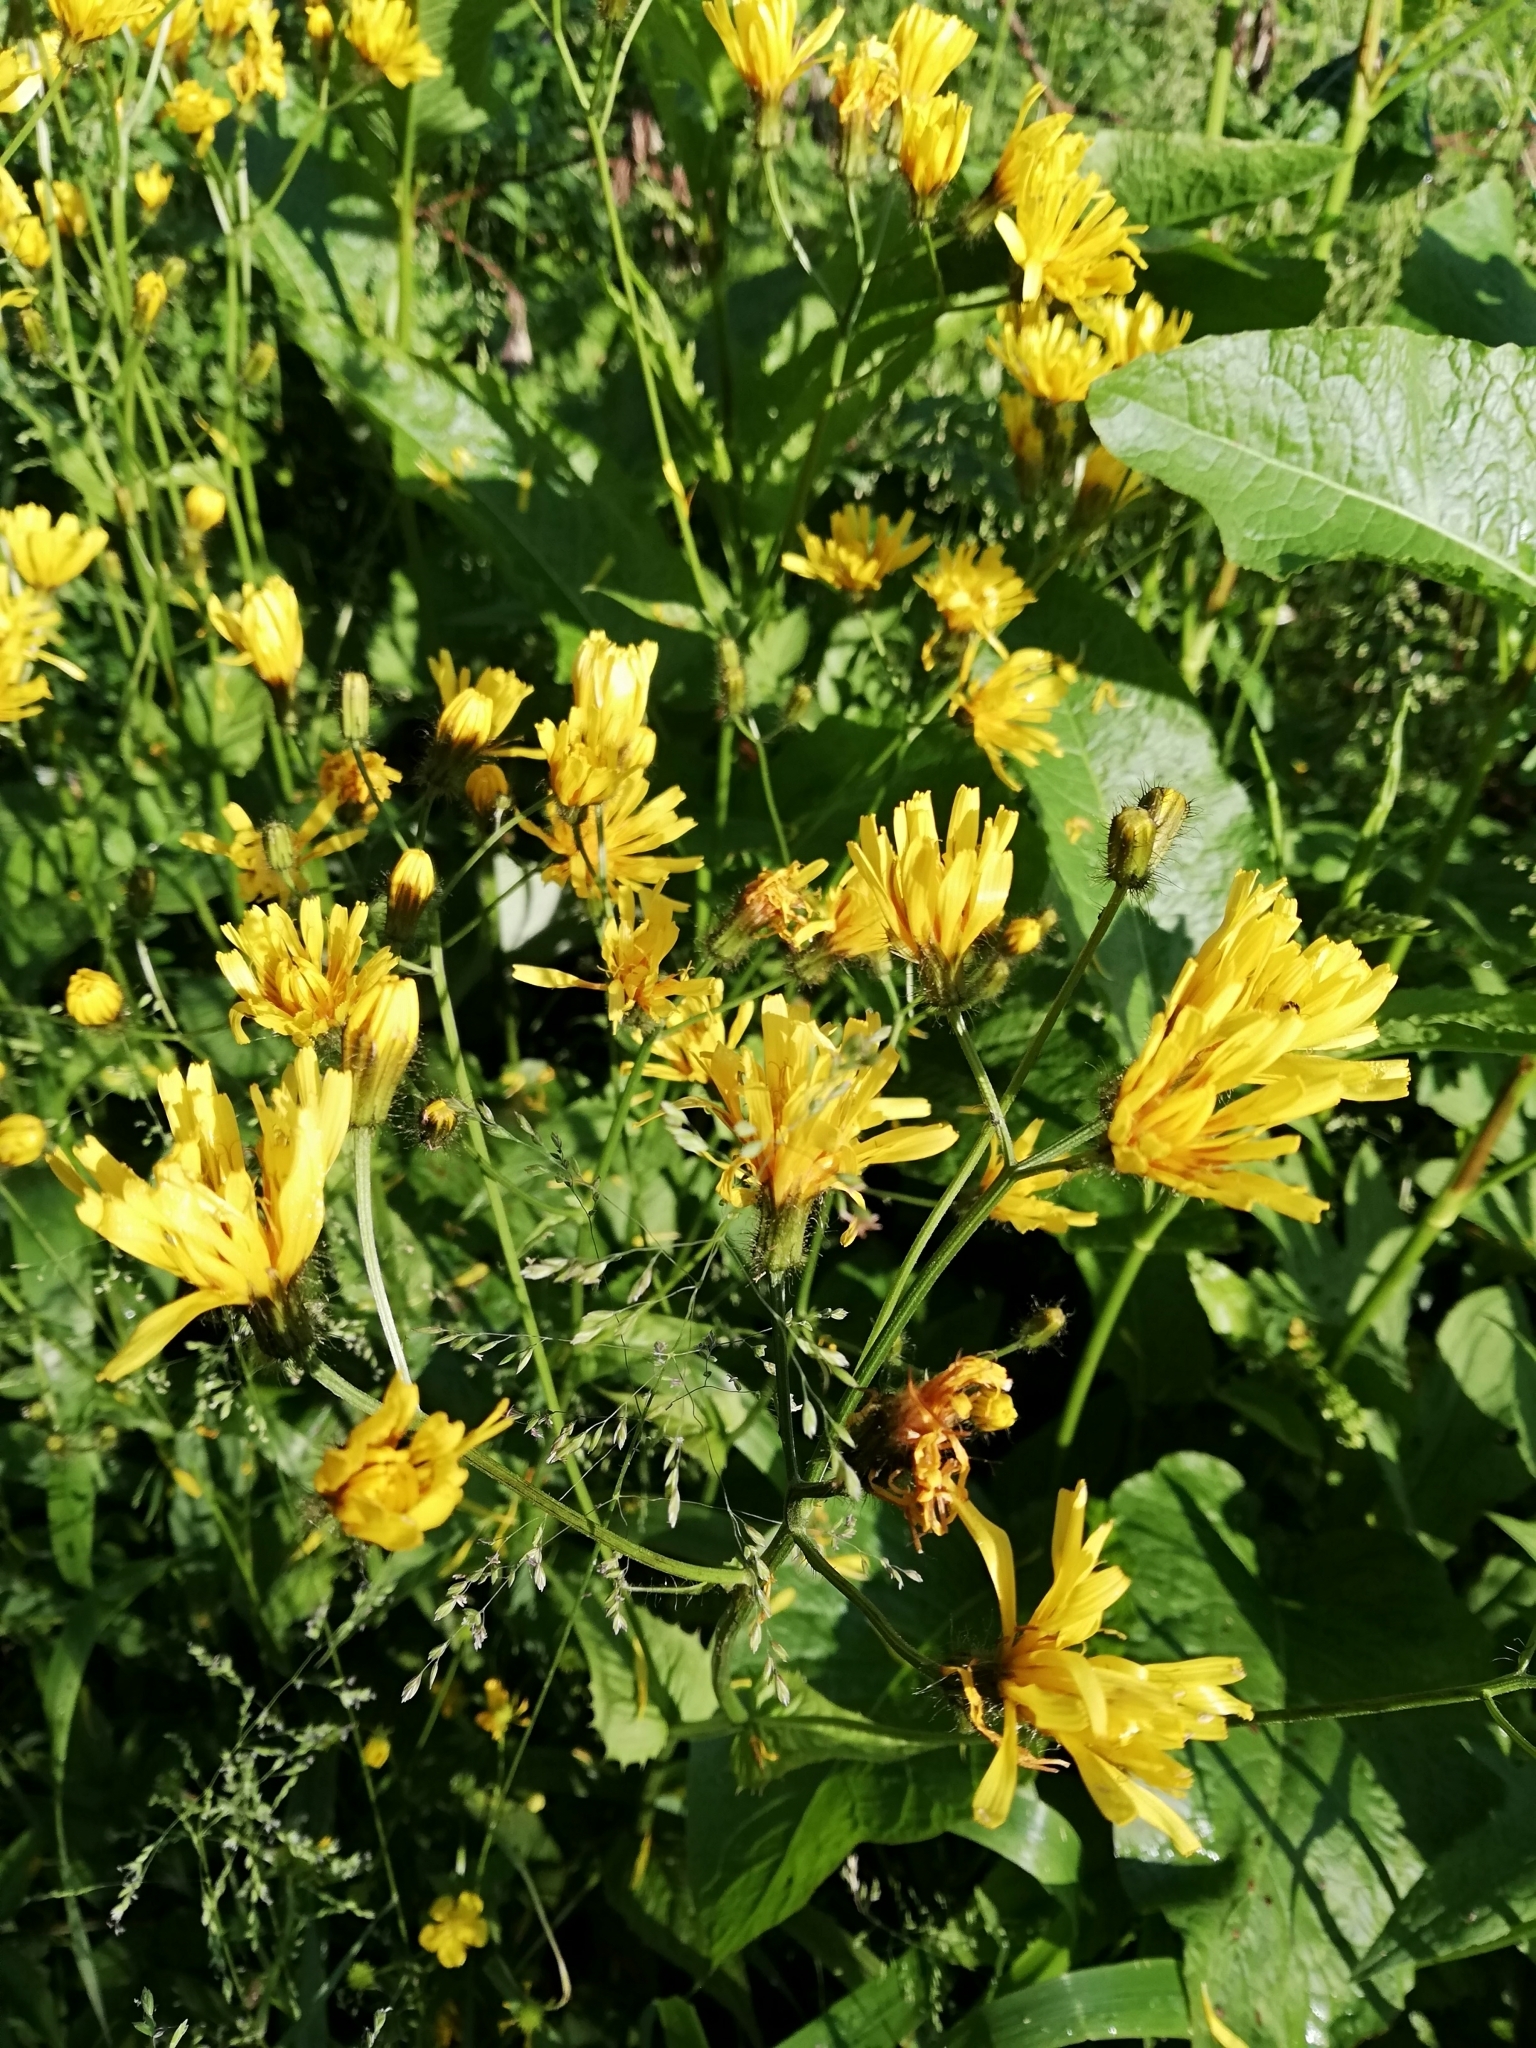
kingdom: Plantae
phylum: Tracheophyta
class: Magnoliopsida
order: Asterales
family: Asteraceae
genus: Crepis
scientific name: Crepis paludosa
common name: Marsh hawk's-beard
